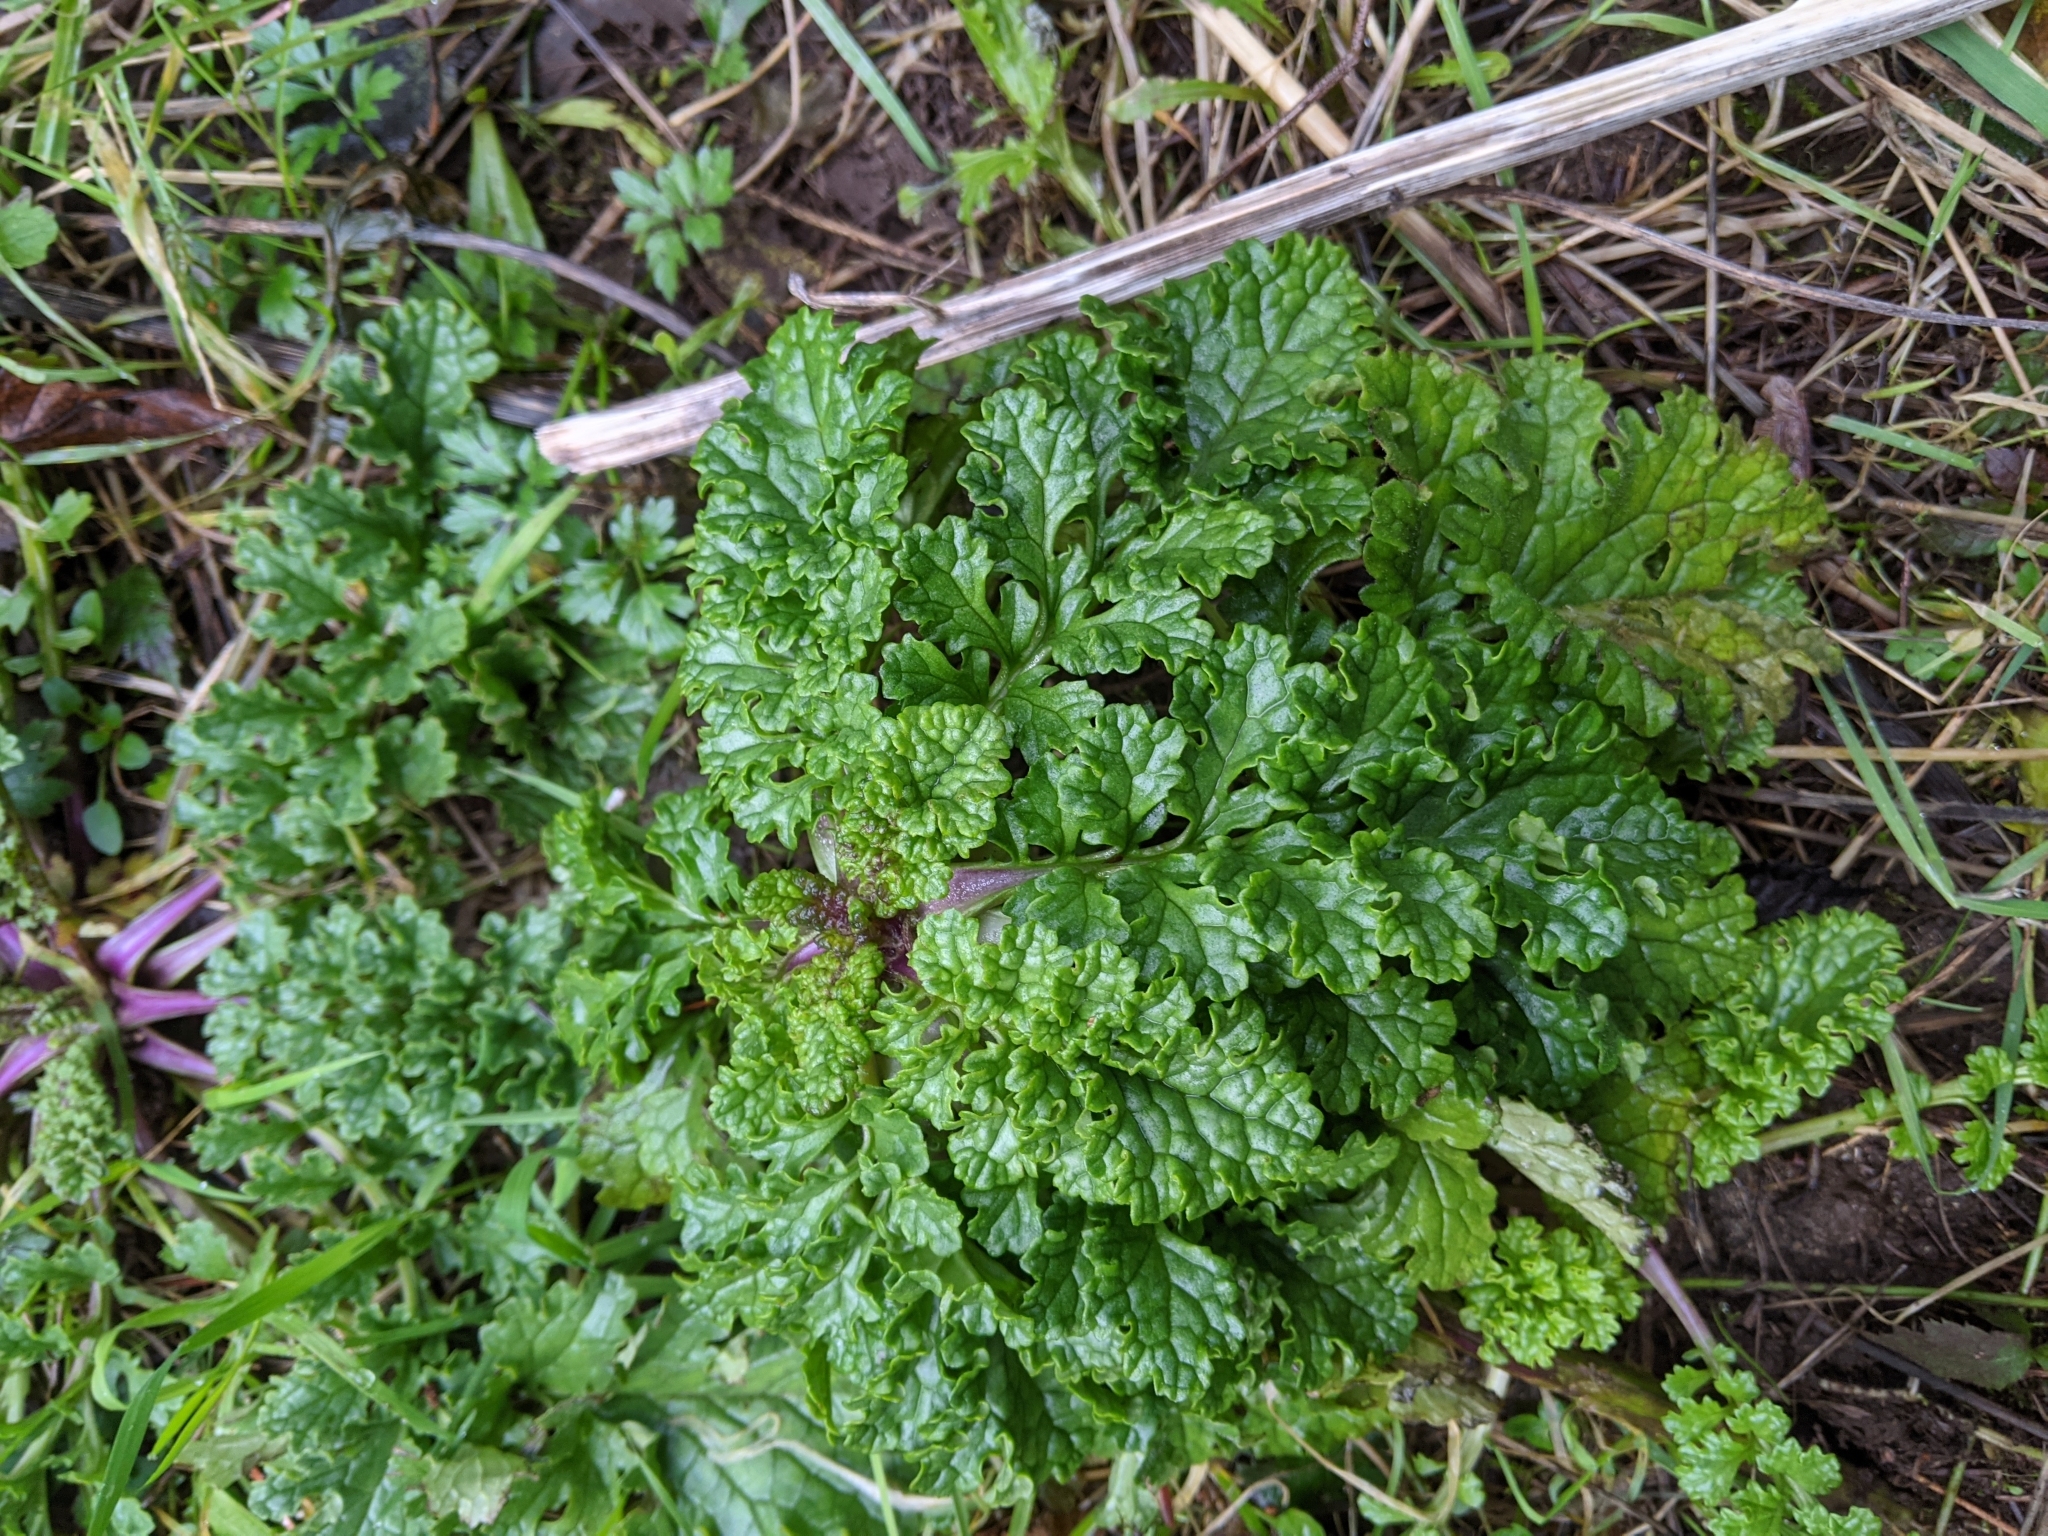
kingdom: Plantae
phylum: Tracheophyta
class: Magnoliopsida
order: Asterales
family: Asteraceae
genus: Jacobaea
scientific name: Jacobaea vulgaris
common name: Stinking willie
